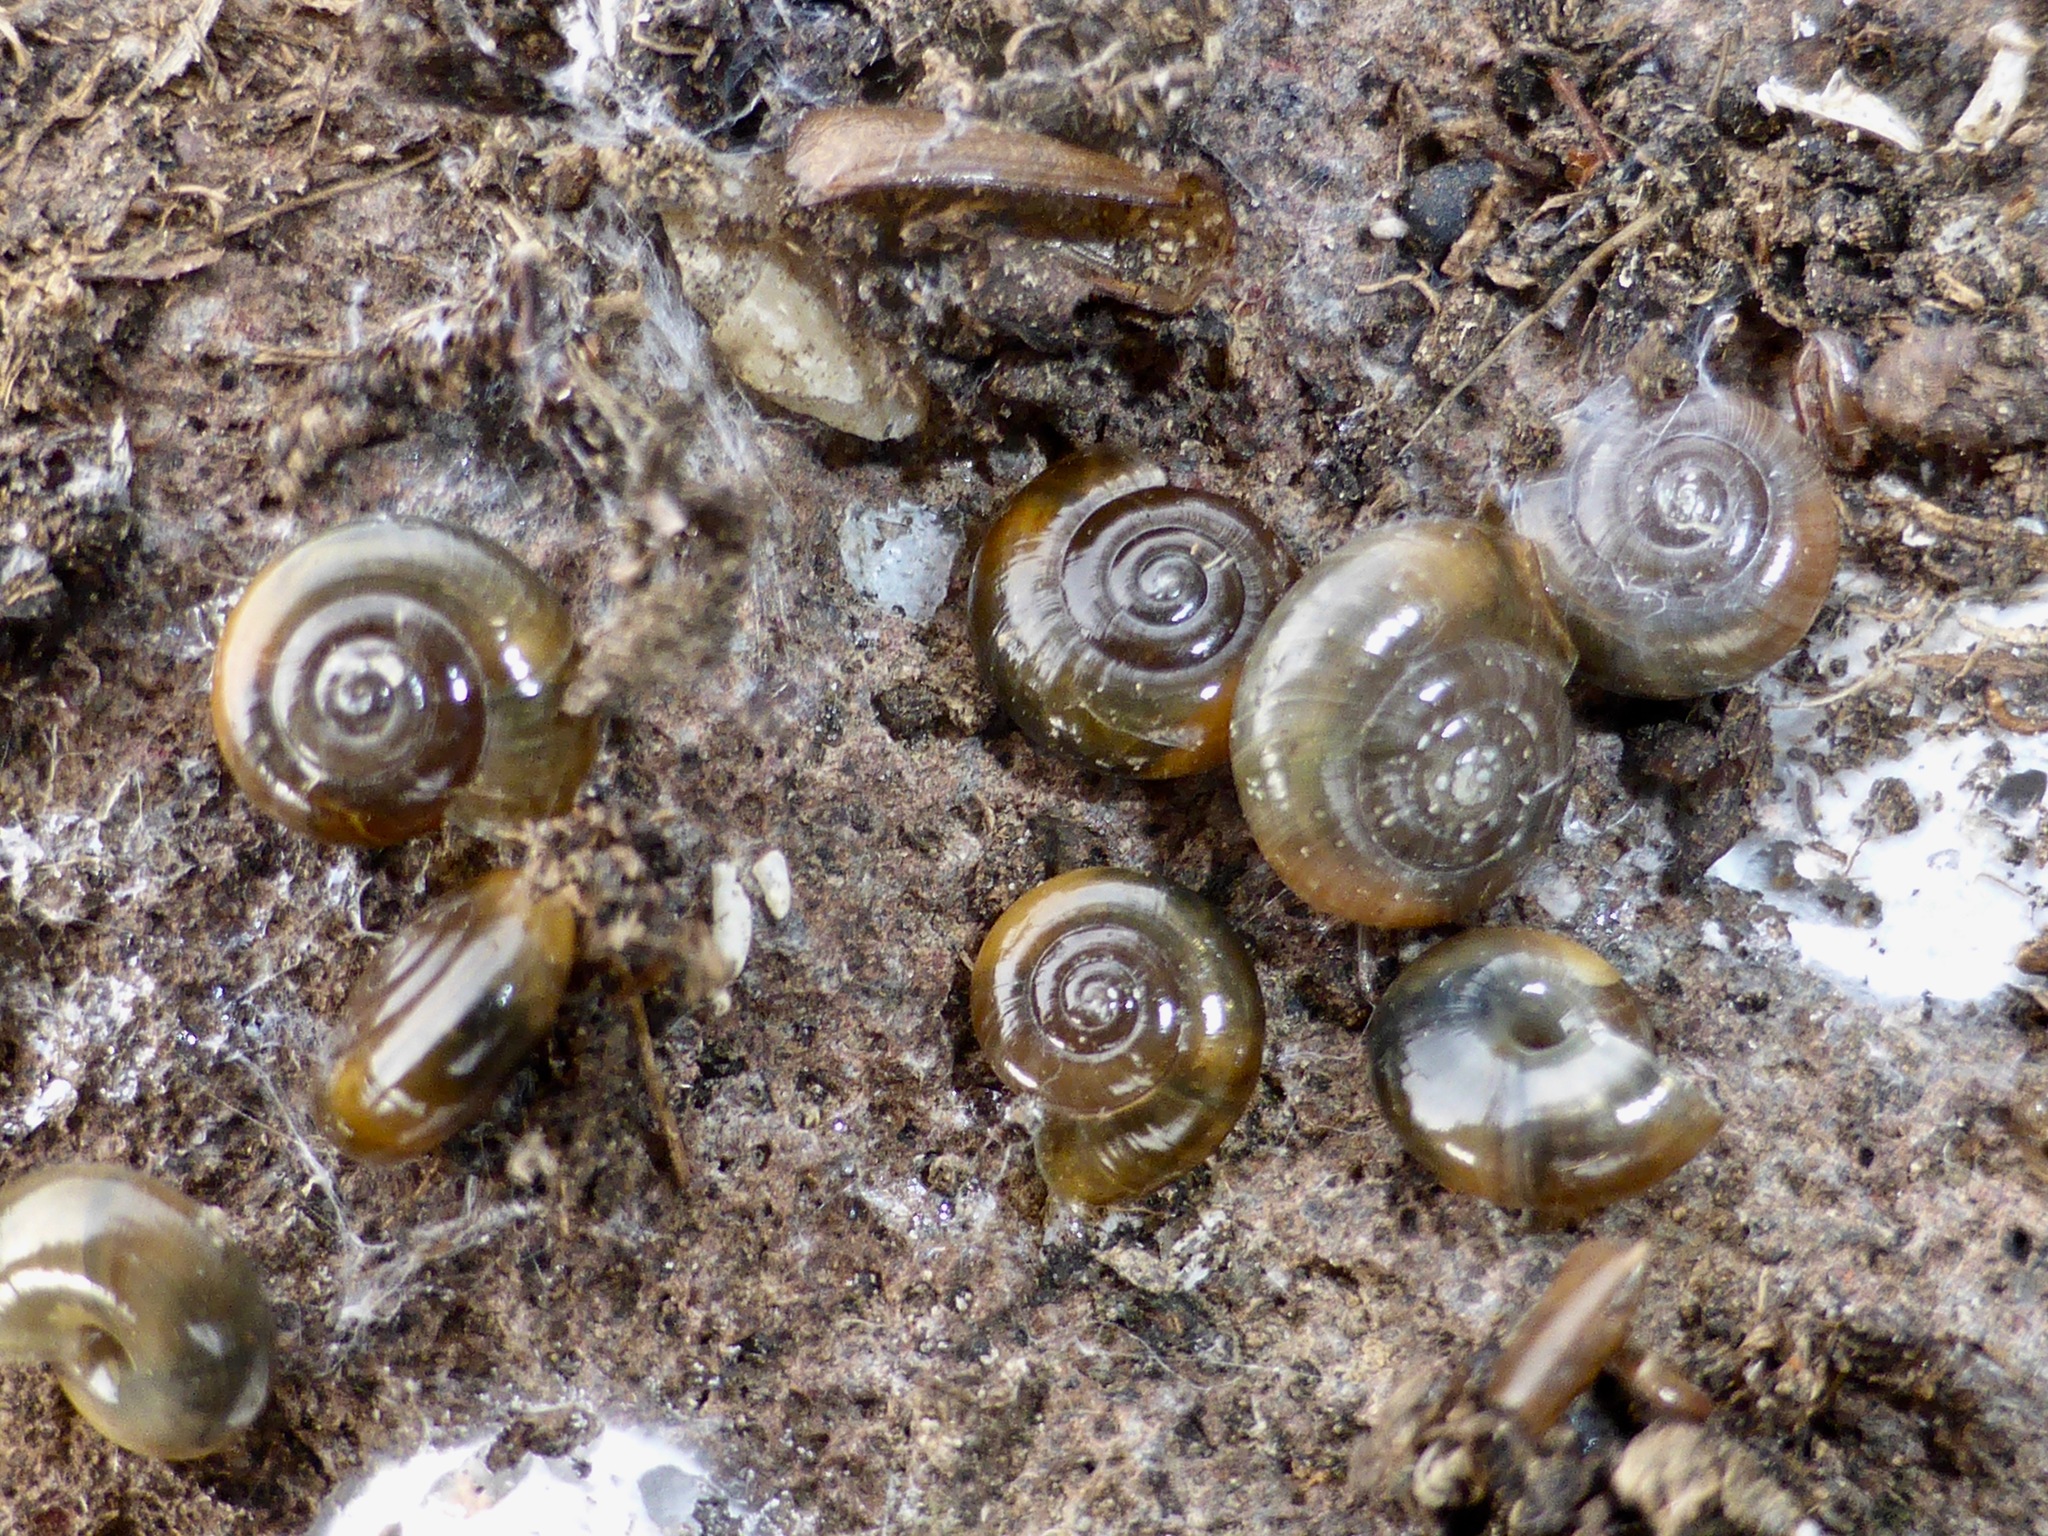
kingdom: Animalia
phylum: Mollusca
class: Gastropoda
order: Stylommatophora
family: Oxychilidae
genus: Oxychilus
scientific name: Oxychilus
